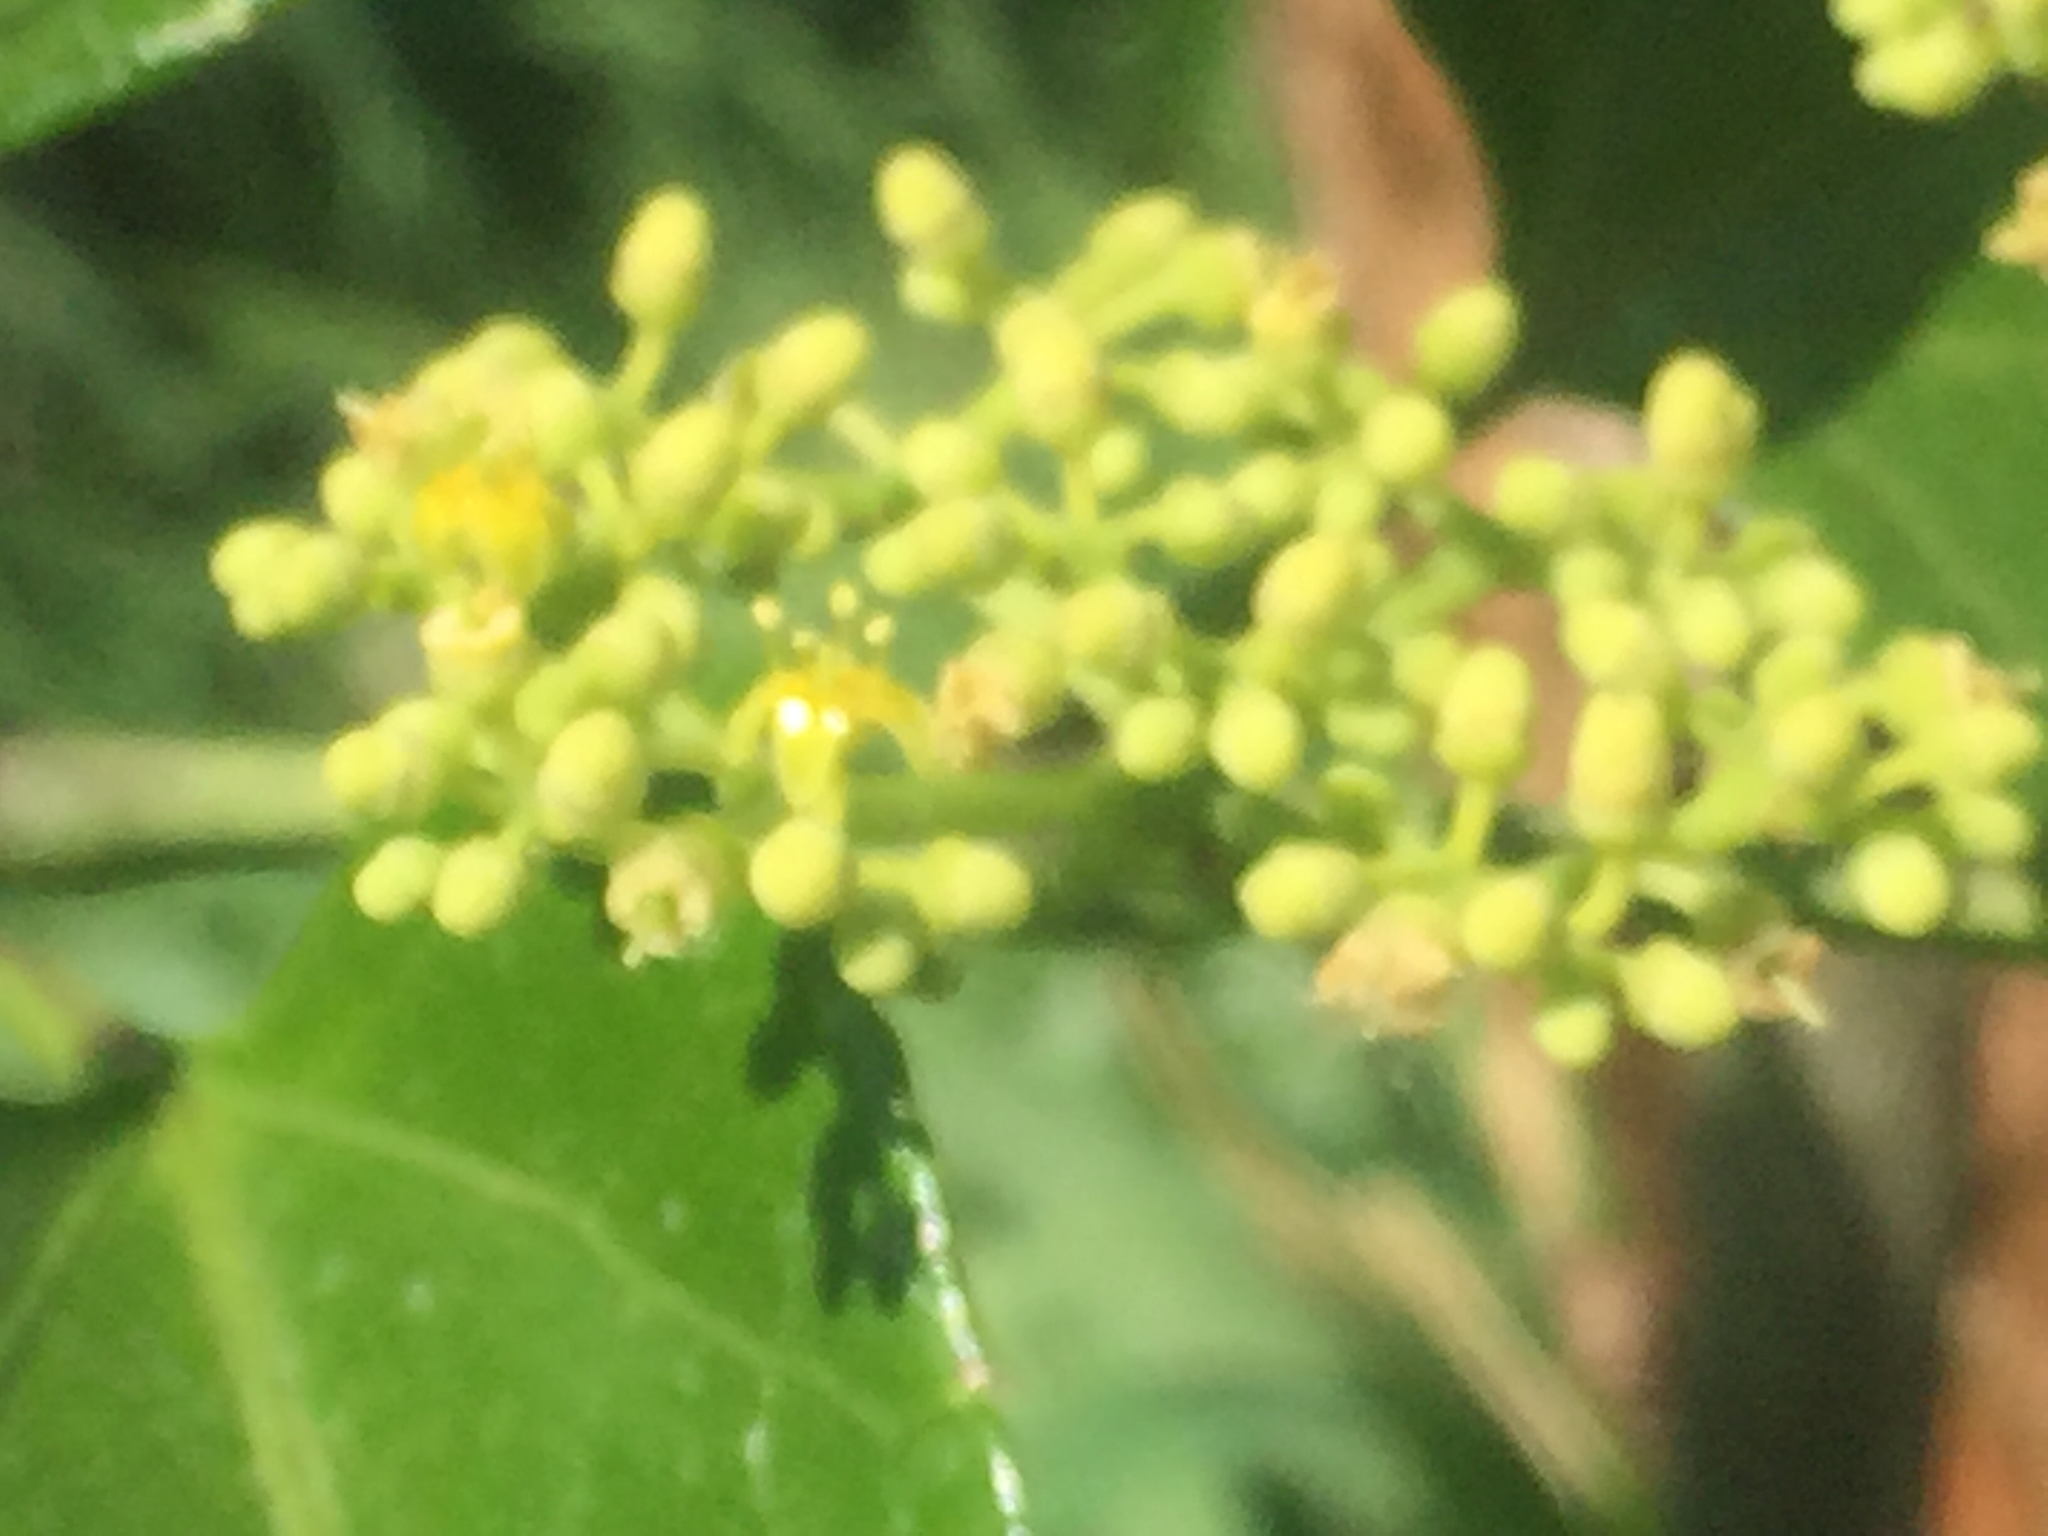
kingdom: Plantae
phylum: Tracheophyta
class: Magnoliopsida
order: Vitales
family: Vitaceae
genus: Cissus
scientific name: Cissus verticillata
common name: Princess vine
